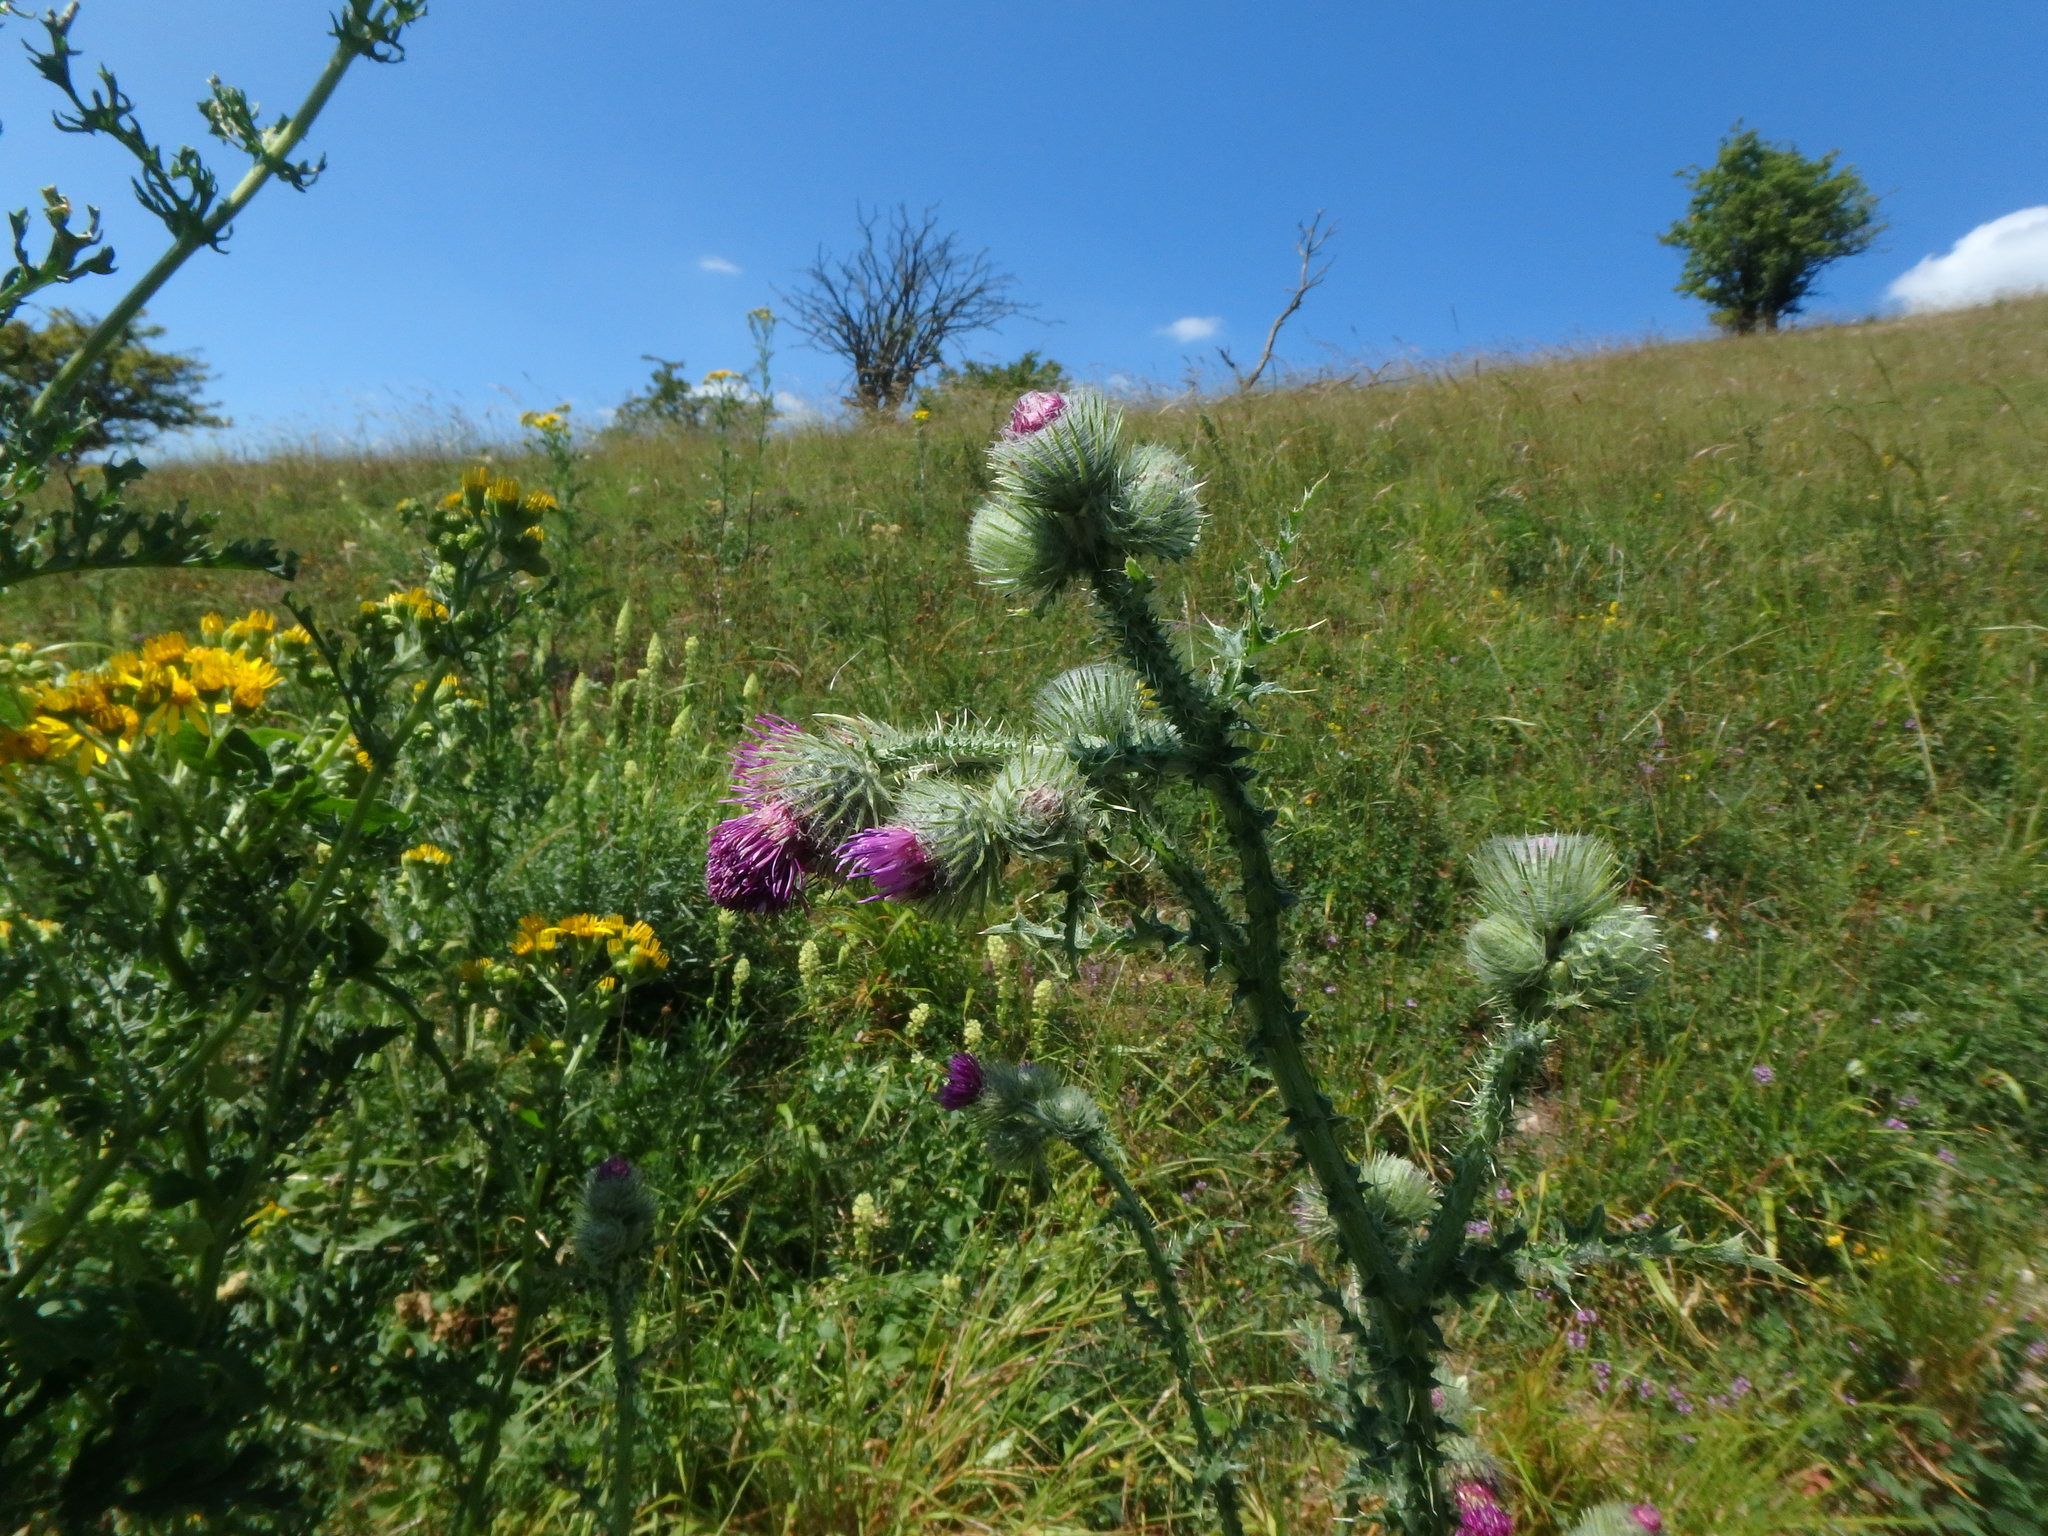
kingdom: Plantae
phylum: Tracheophyta
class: Magnoliopsida
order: Asterales
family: Asteraceae
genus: Carduus
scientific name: Carduus crispus
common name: Welted thistle
